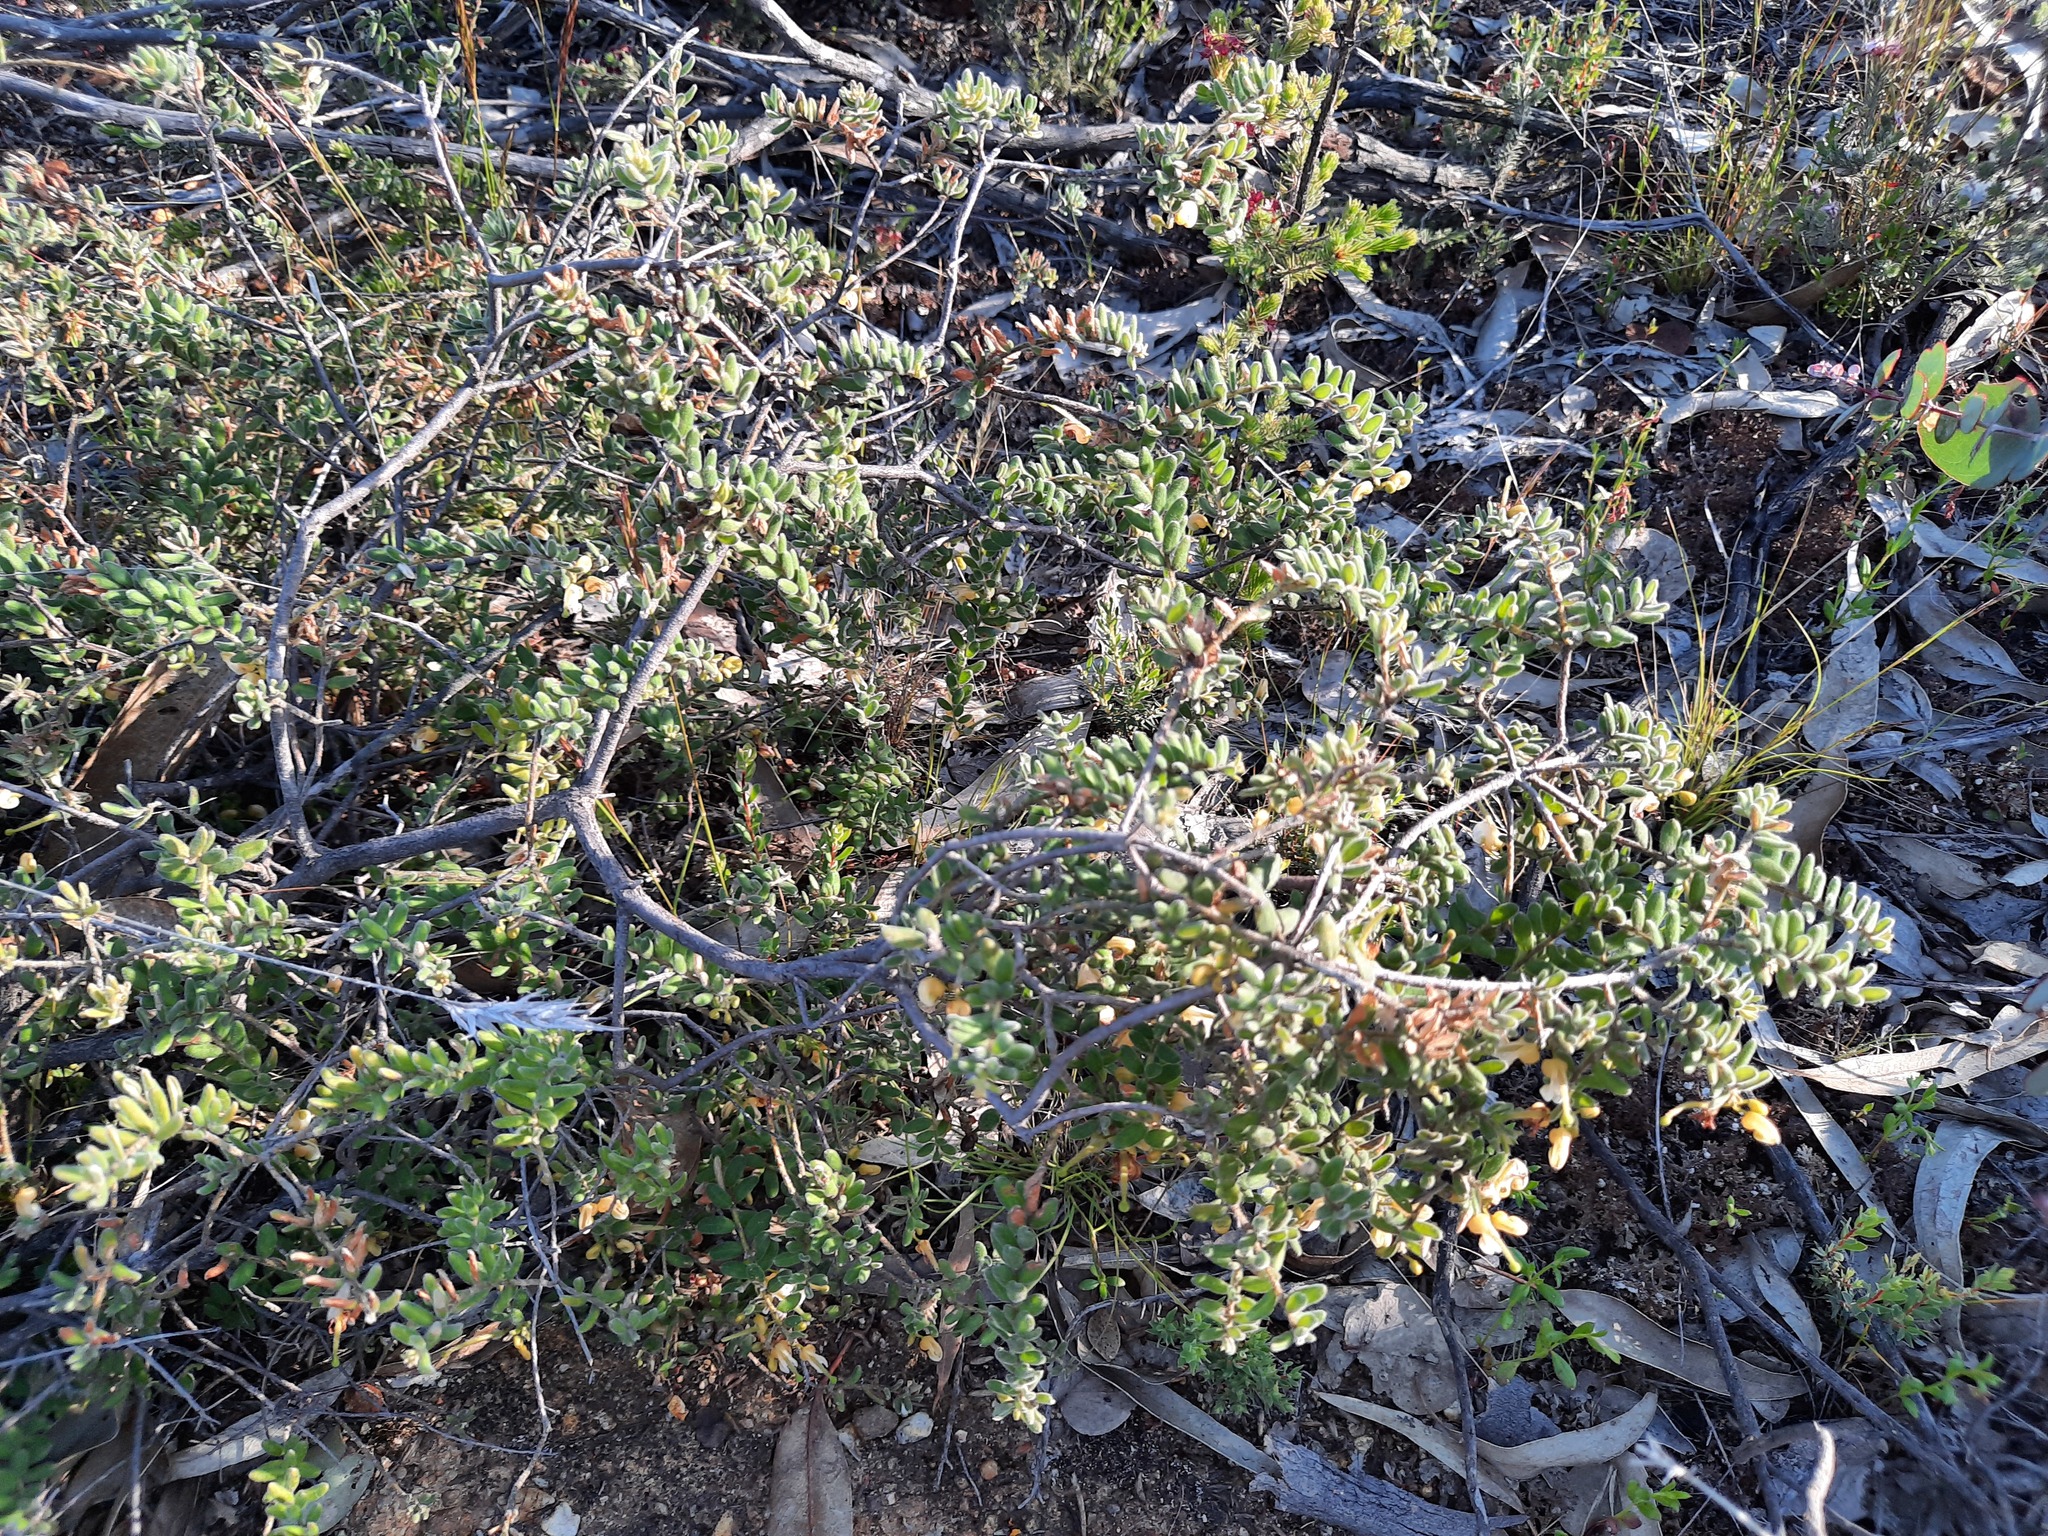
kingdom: Plantae
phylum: Tracheophyta
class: Magnoliopsida
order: Proteales
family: Proteaceae
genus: Grevillea
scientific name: Grevillea alpina
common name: Catclaws grevillea
